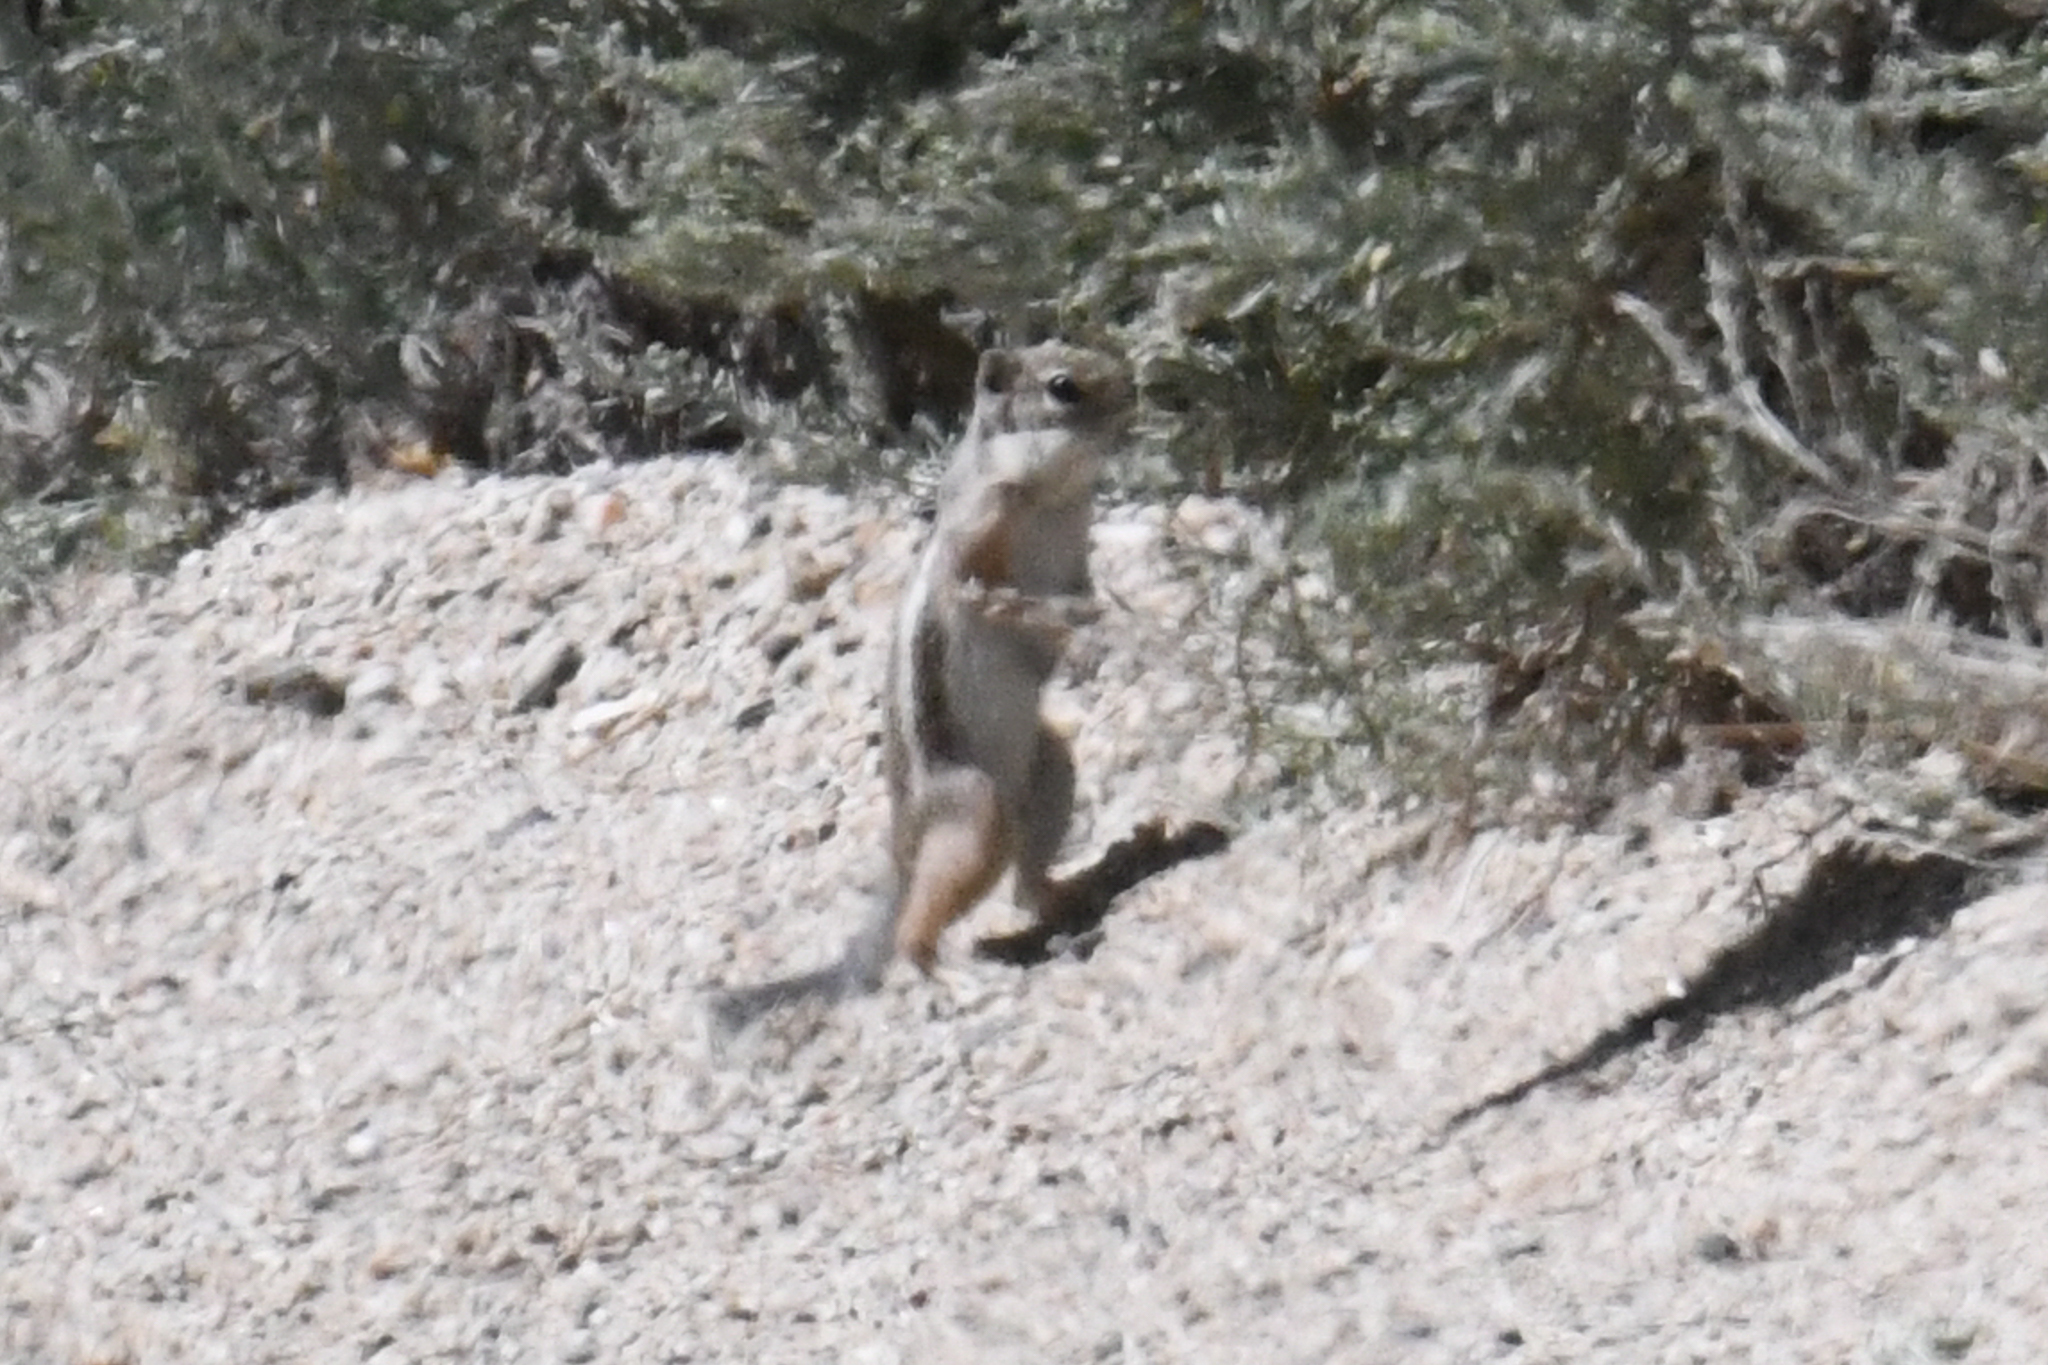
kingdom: Animalia
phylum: Chordata
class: Mammalia
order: Rodentia
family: Sciuridae
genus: Ammospermophilus
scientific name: Ammospermophilus leucurus
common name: White-tailed antelope squirrel
